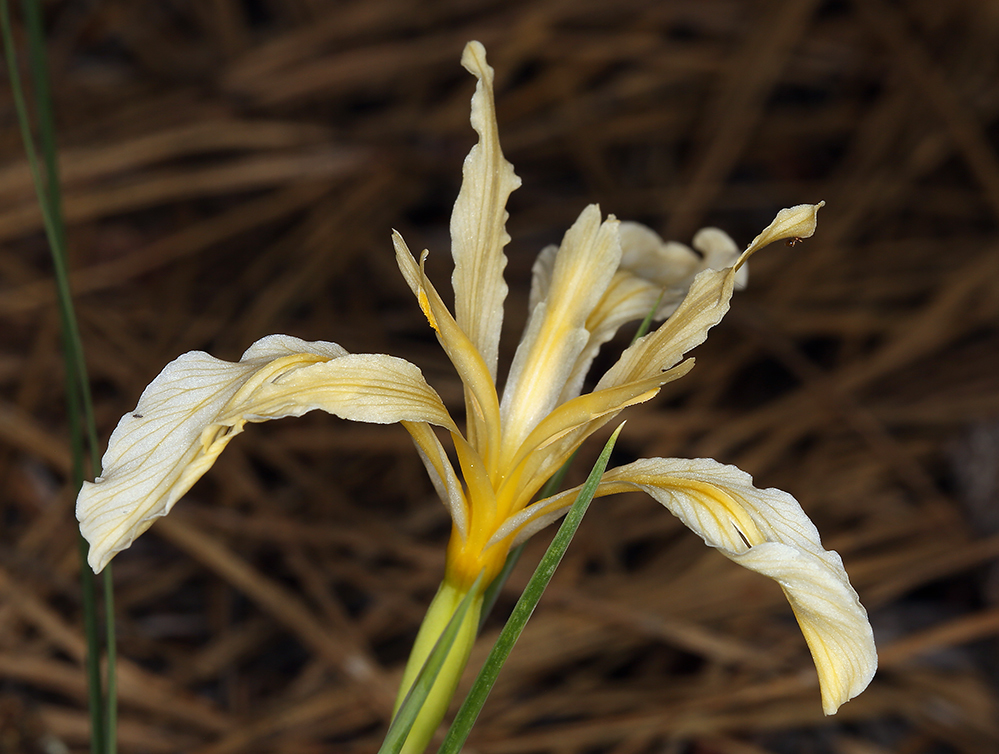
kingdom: Plantae
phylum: Tracheophyta
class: Liliopsida
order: Asparagales
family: Iridaceae
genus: Iris
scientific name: Iris hartwegii
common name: Sierra iris
